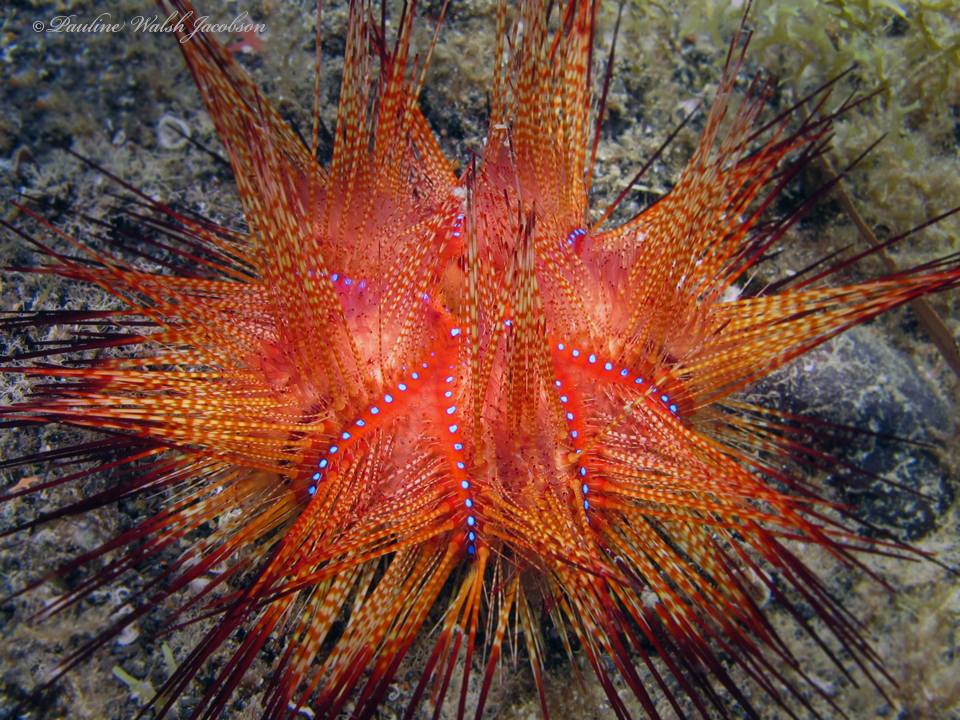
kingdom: Animalia
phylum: Echinodermata
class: Echinoidea
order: Diadematoida
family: Diadematidae
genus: Astropyga
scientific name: Astropyga radiata
